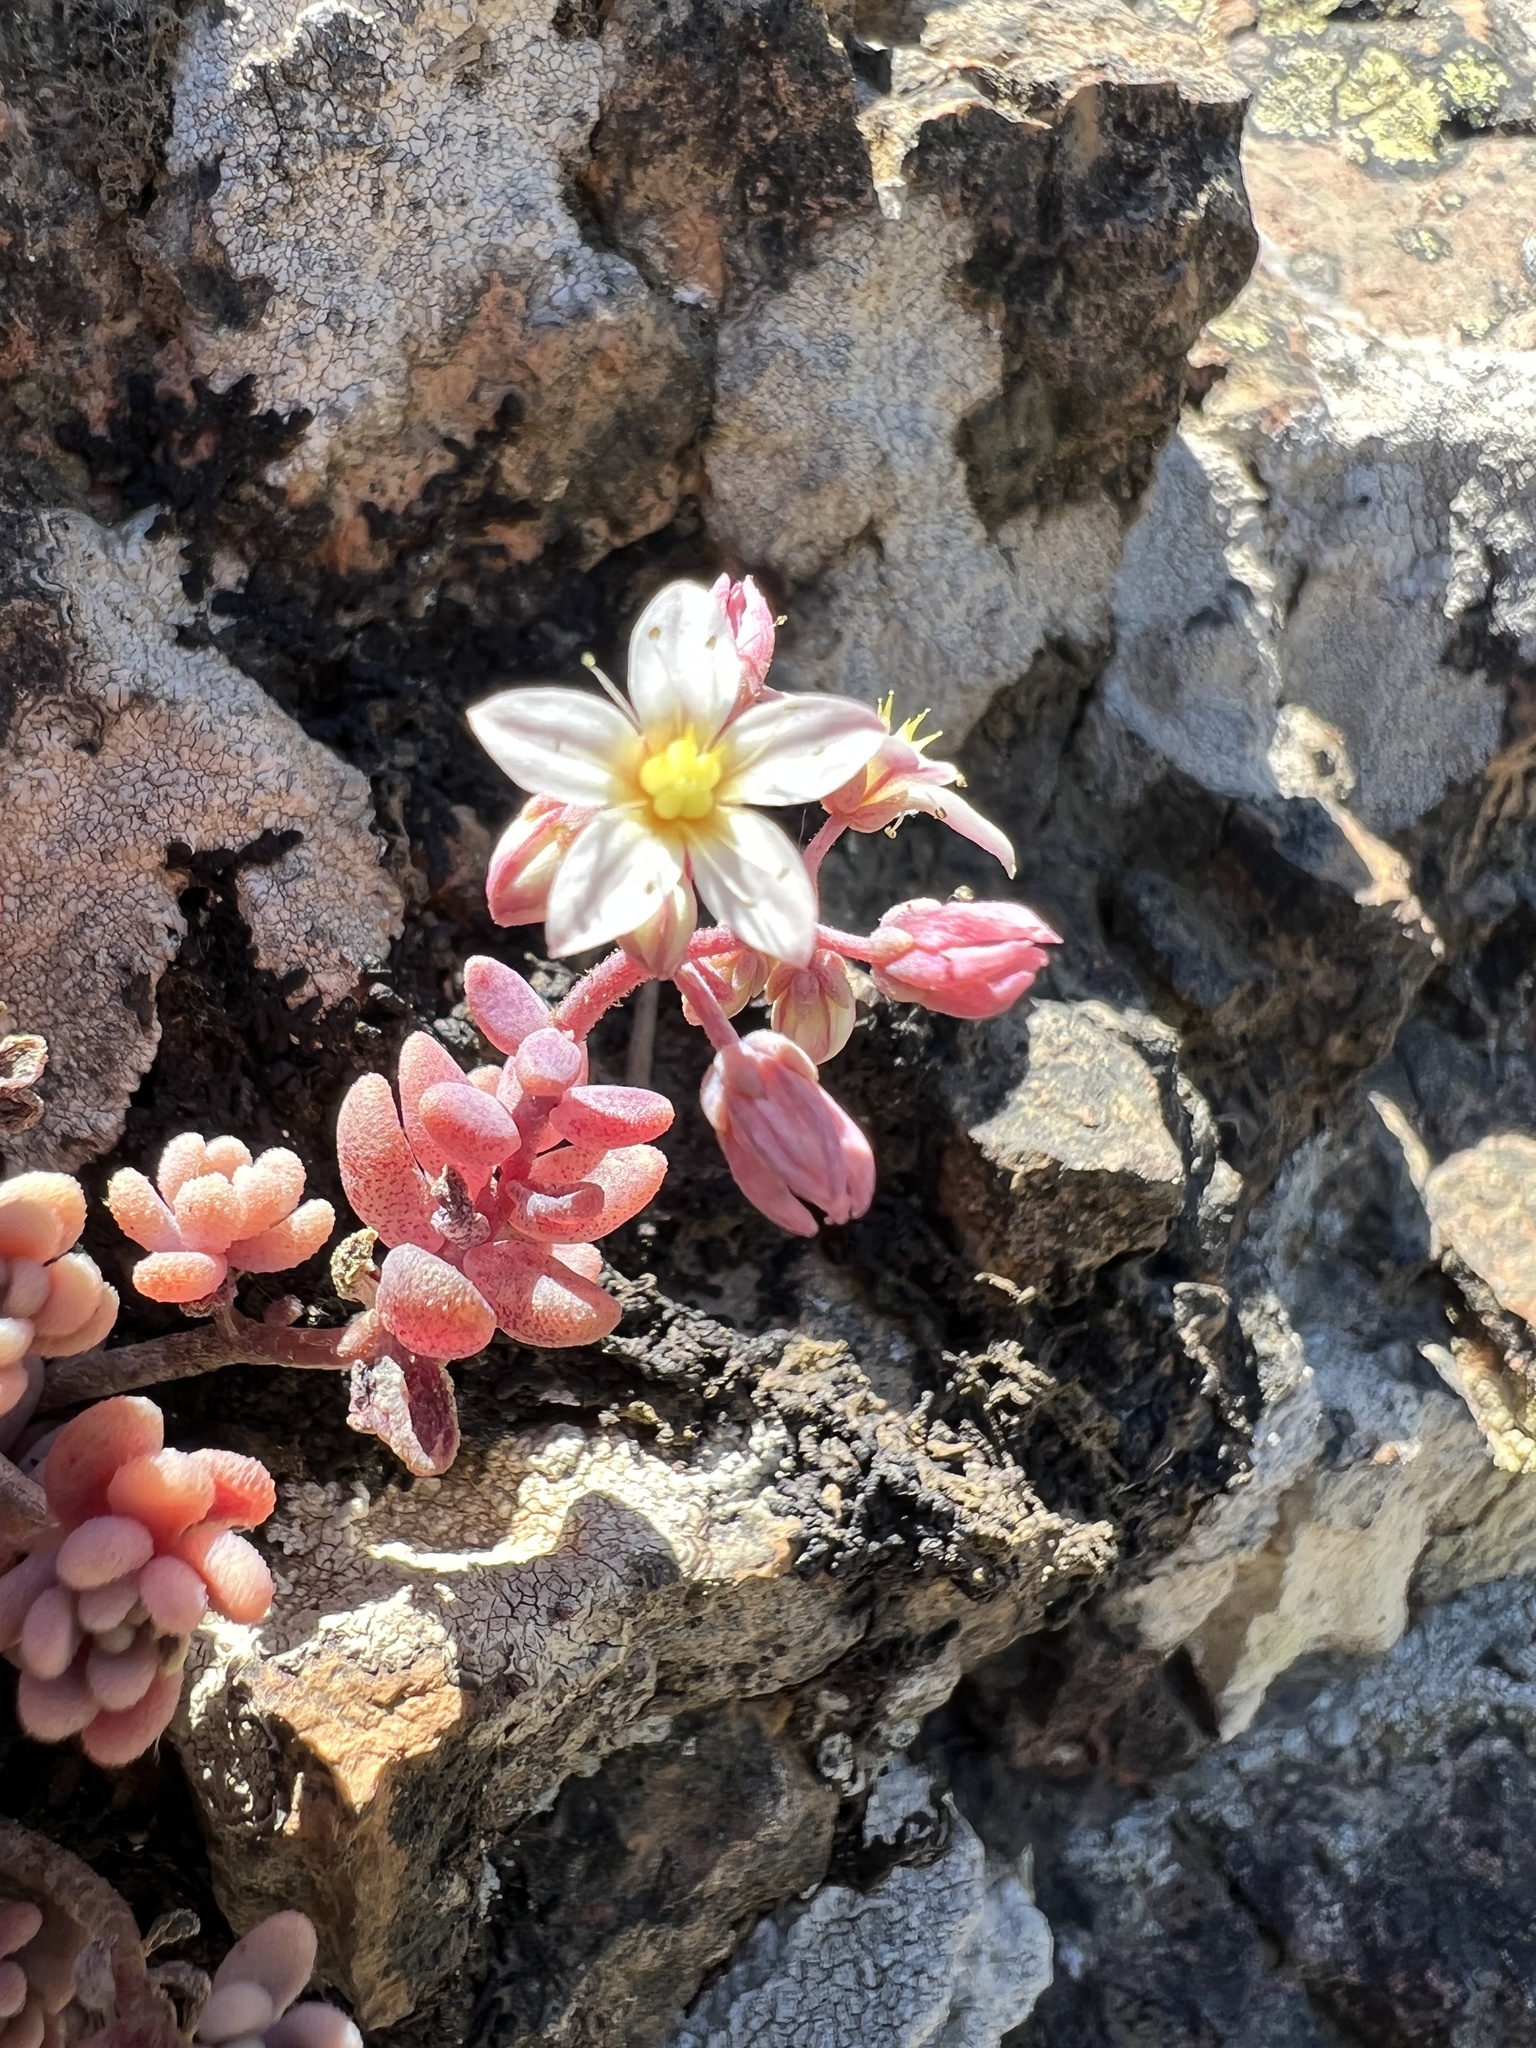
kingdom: Plantae
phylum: Tracheophyta
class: Magnoliopsida
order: Saxifragales
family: Crassulaceae
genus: Sedum
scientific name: Sedum dasyphyllum
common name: Thick-leaf stonecrop
